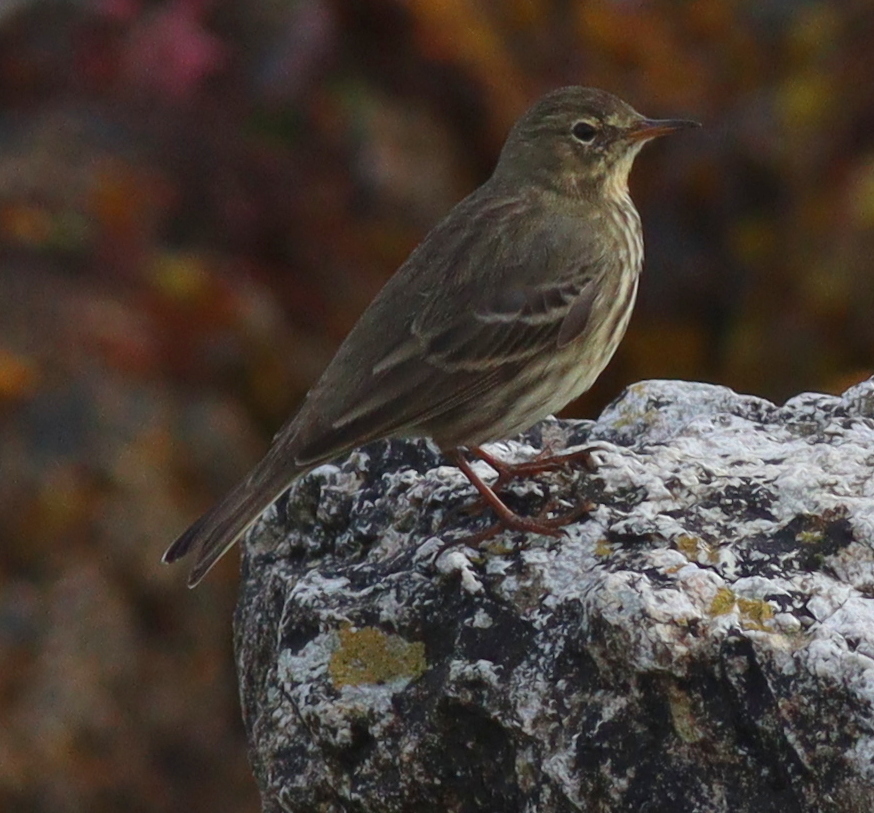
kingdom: Animalia
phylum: Chordata
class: Aves
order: Passeriformes
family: Motacillidae
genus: Anthus
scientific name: Anthus petrosus
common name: Eurasian rock pipit
